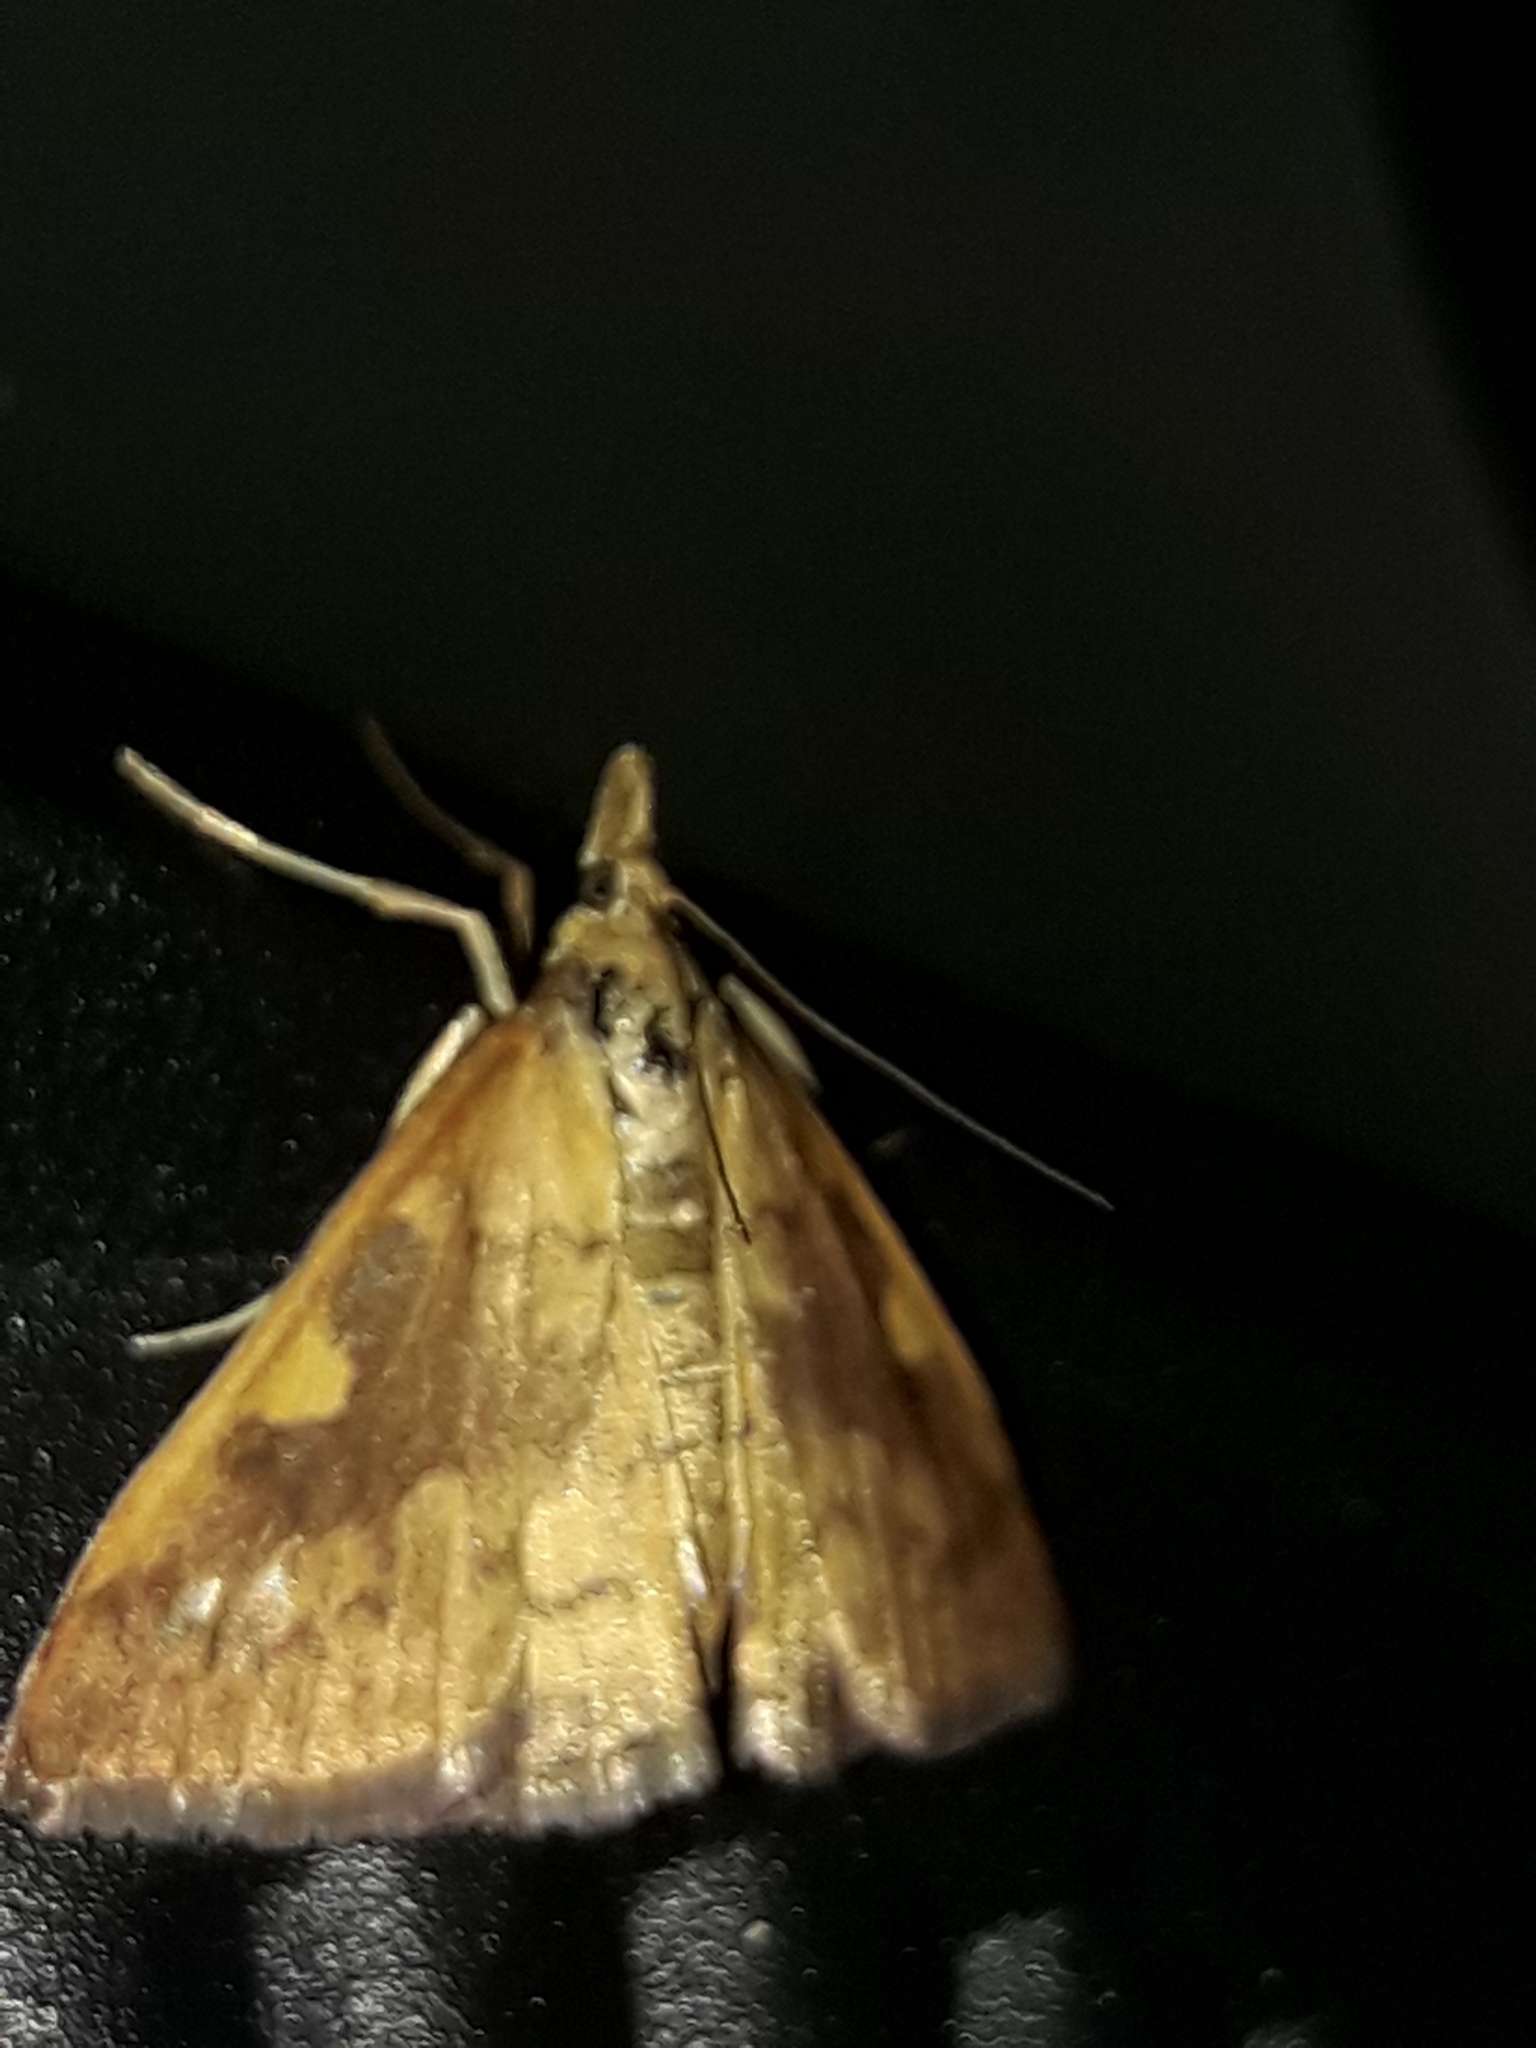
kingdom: Animalia
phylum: Arthropoda
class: Insecta
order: Lepidoptera
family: Crambidae
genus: Udea
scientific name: Udea Mnesictena flavidalis
